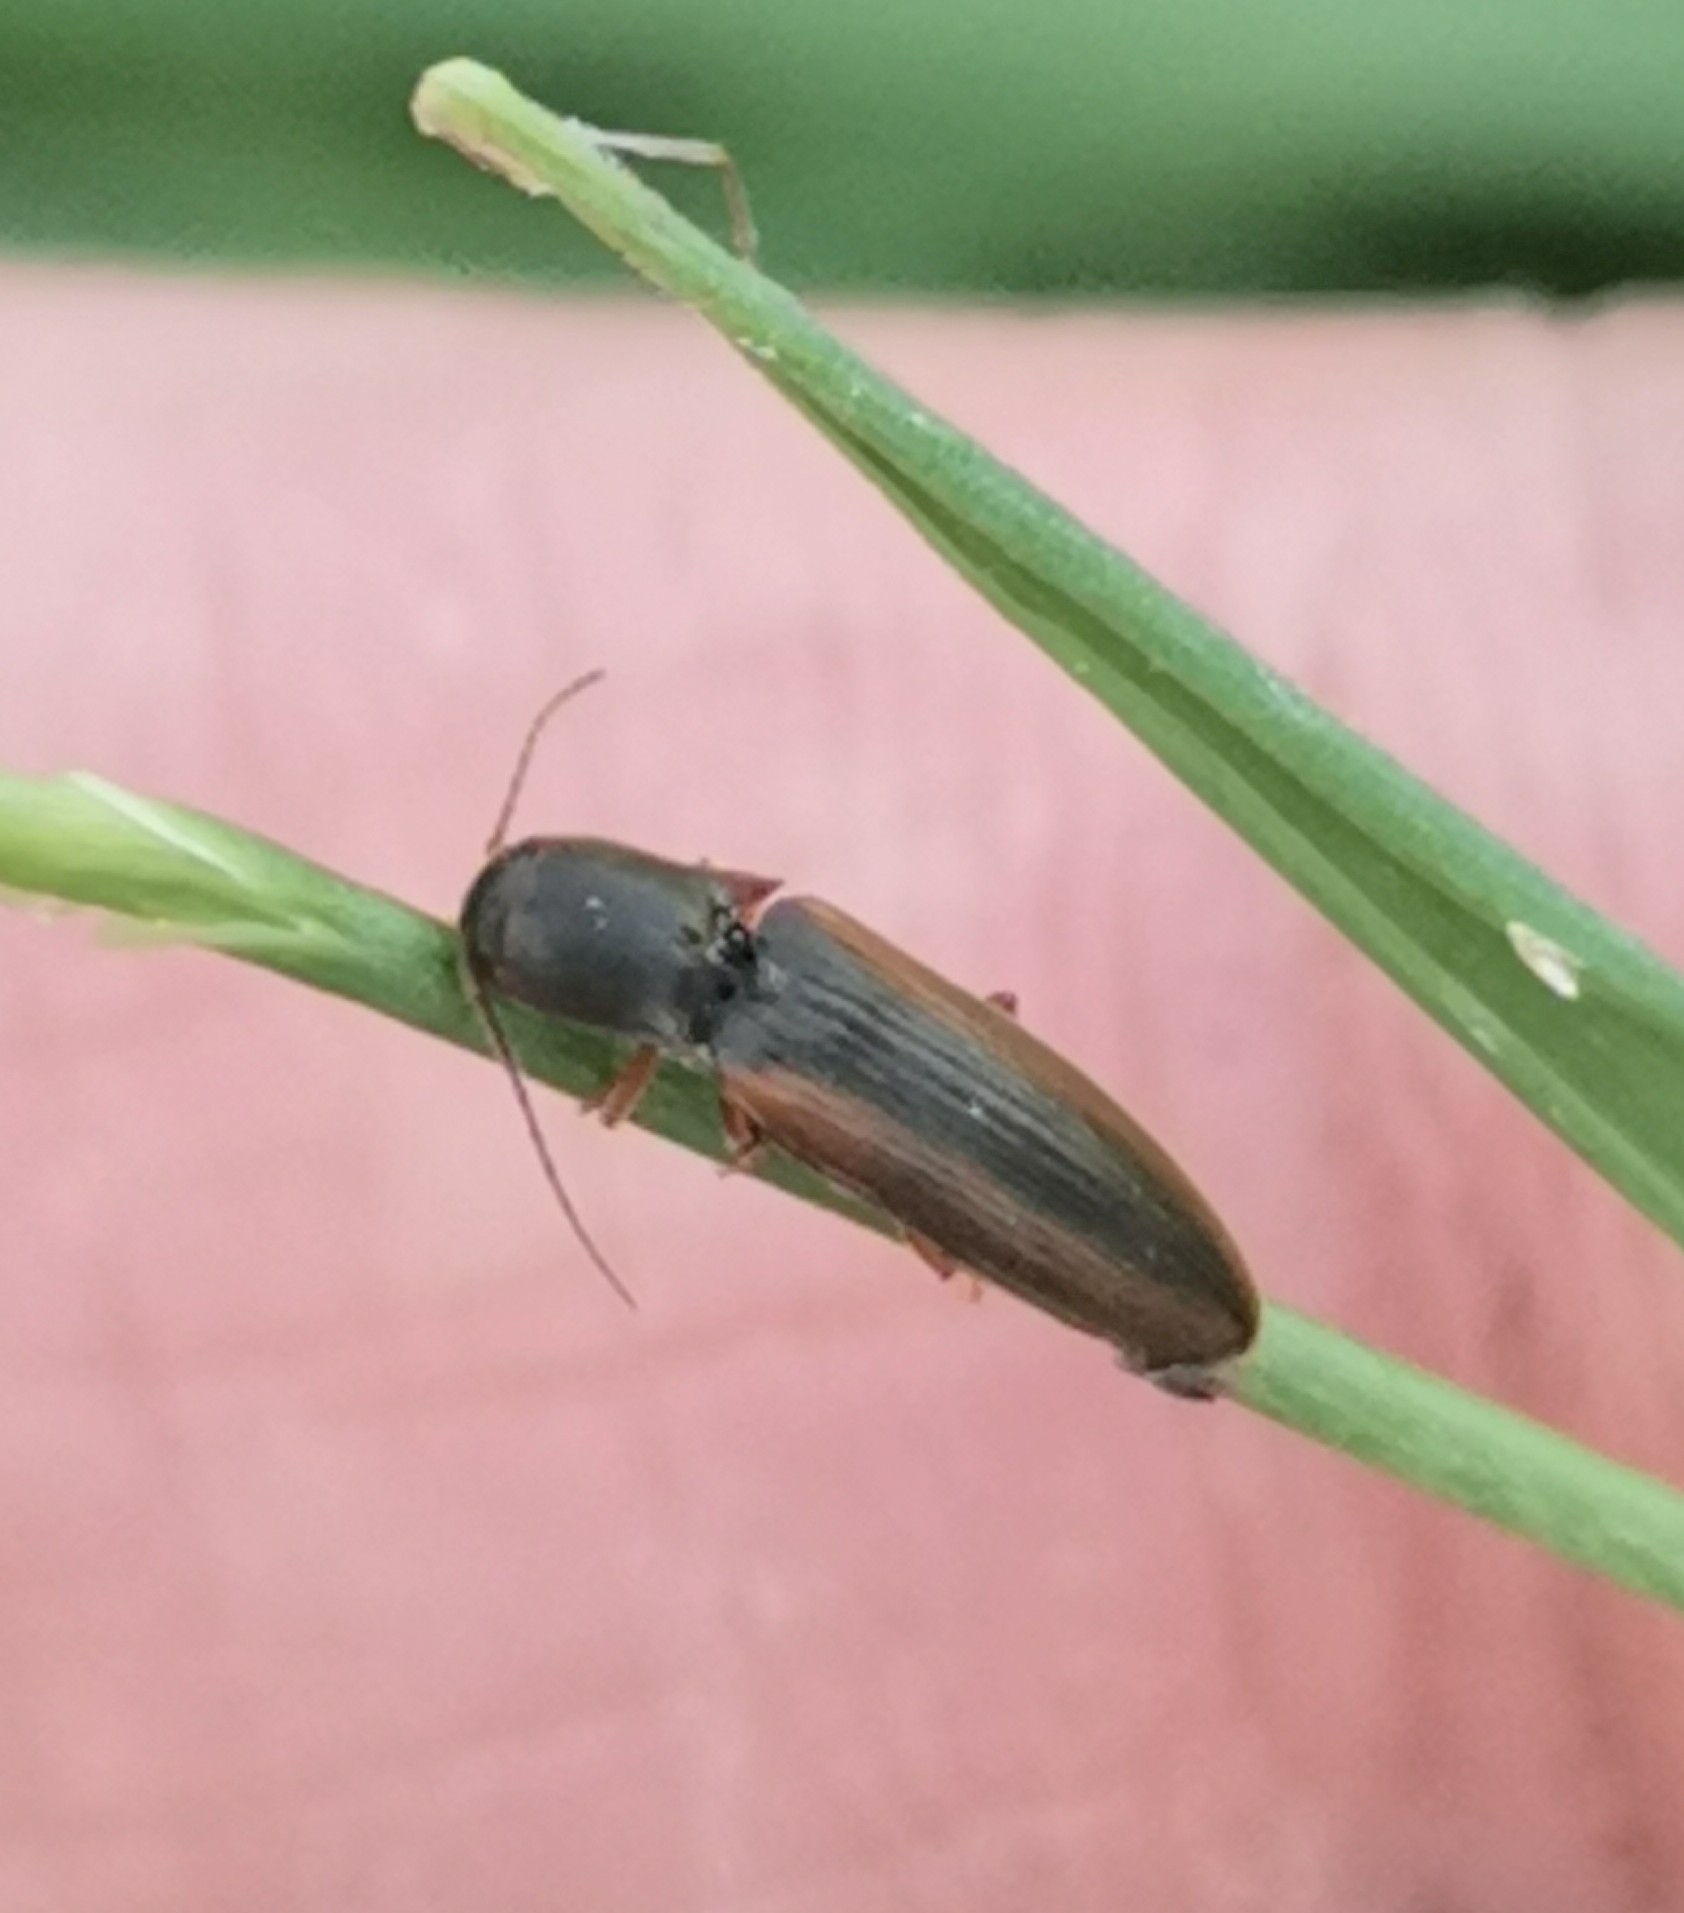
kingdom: Animalia
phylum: Arthropoda
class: Insecta
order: Coleoptera
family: Elateridae
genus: Dalopius
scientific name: Dalopius marginatus
